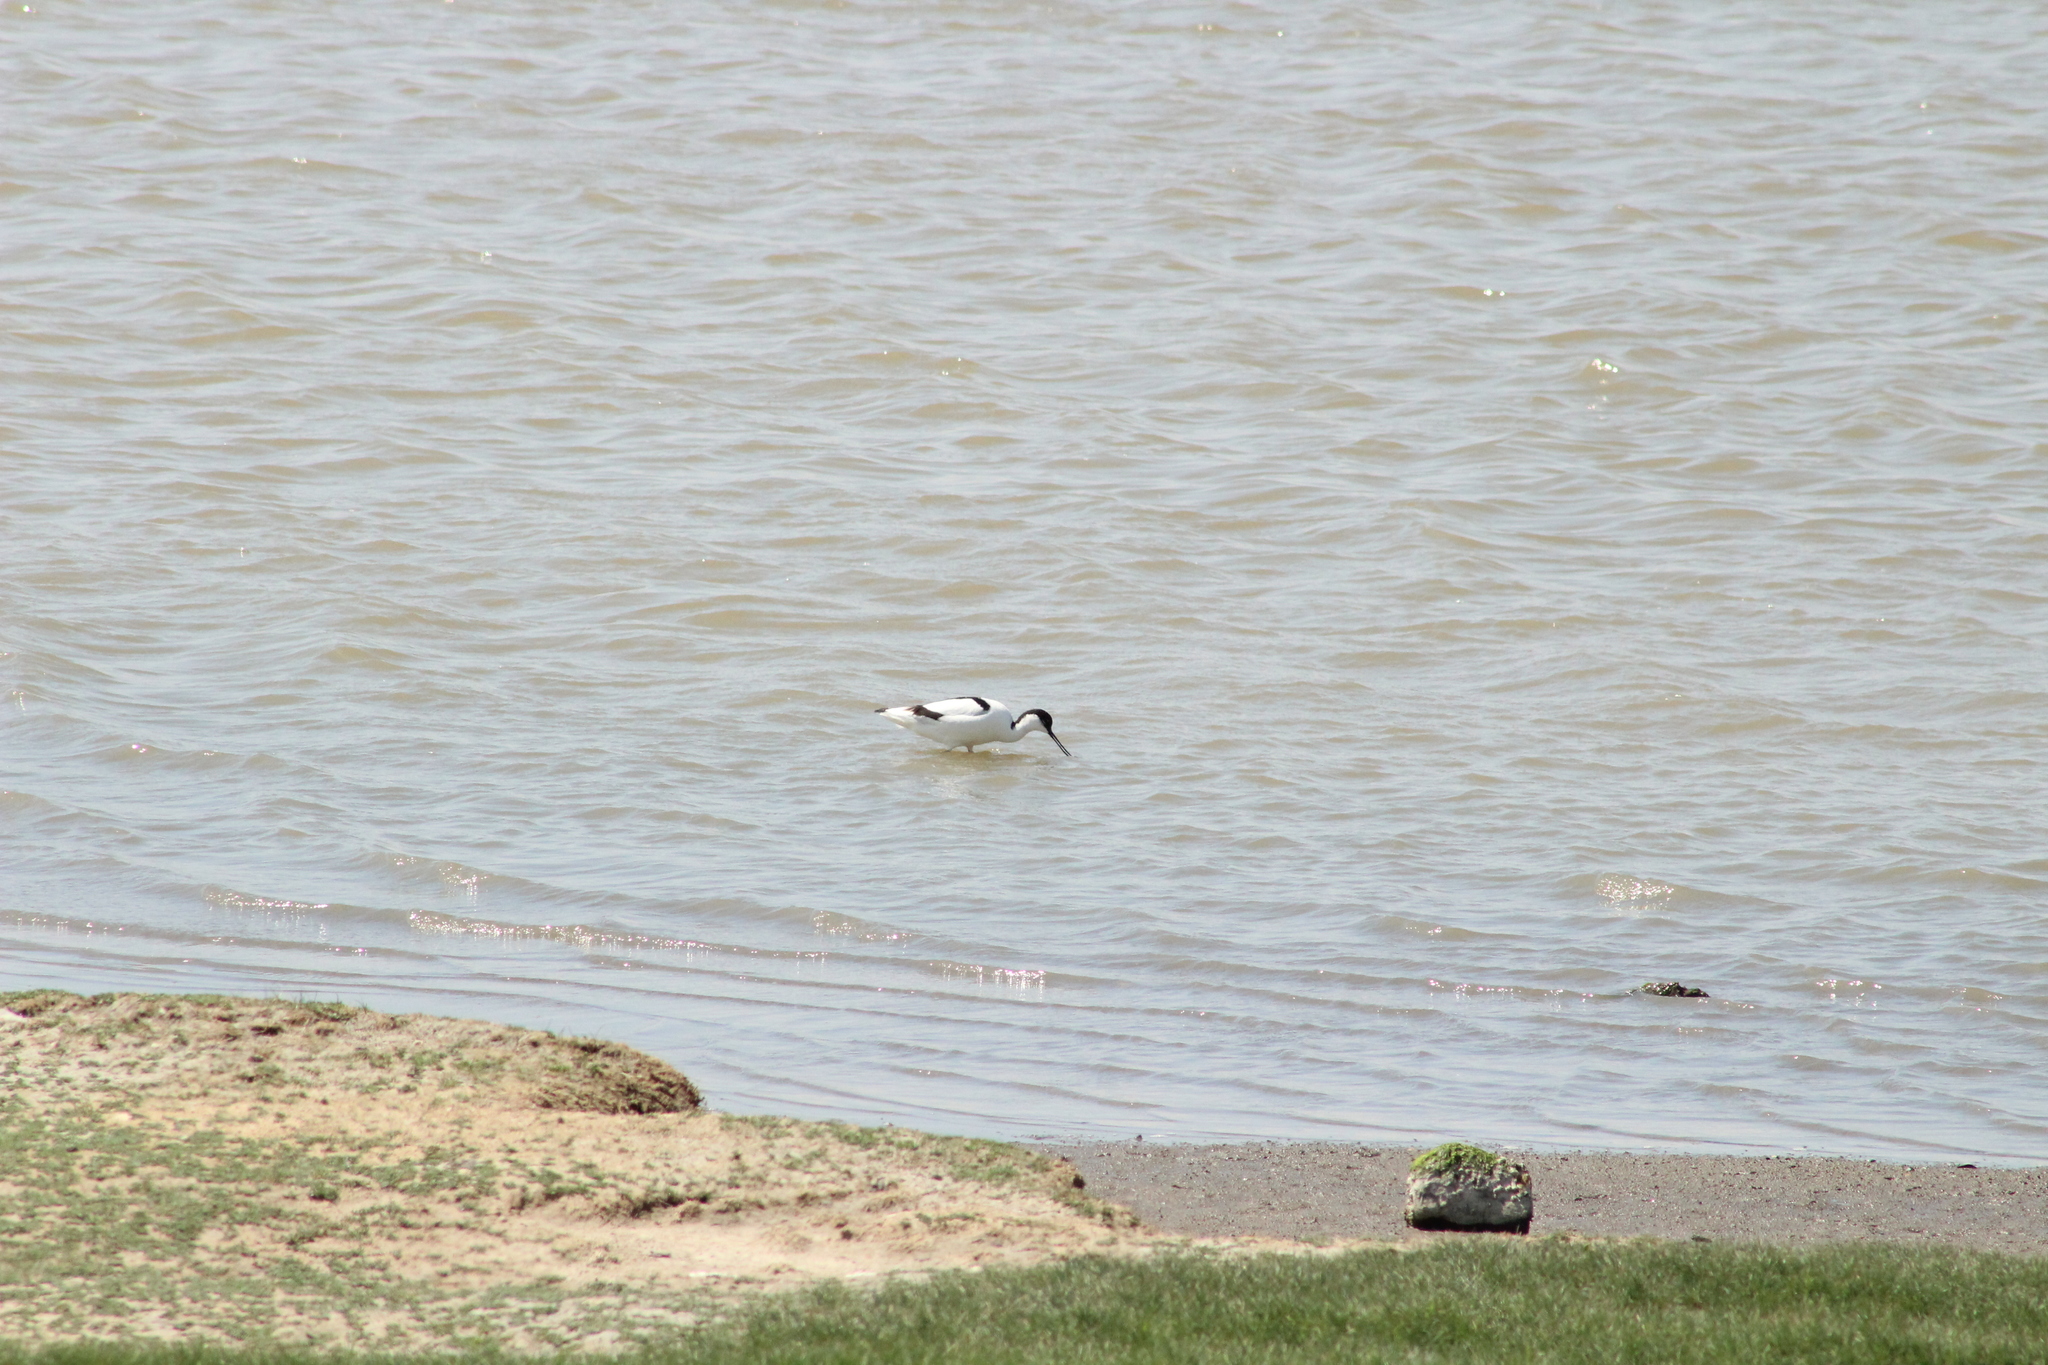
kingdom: Animalia
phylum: Chordata
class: Aves
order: Charadriiformes
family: Recurvirostridae
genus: Recurvirostra
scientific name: Recurvirostra avosetta
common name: Pied avocet
